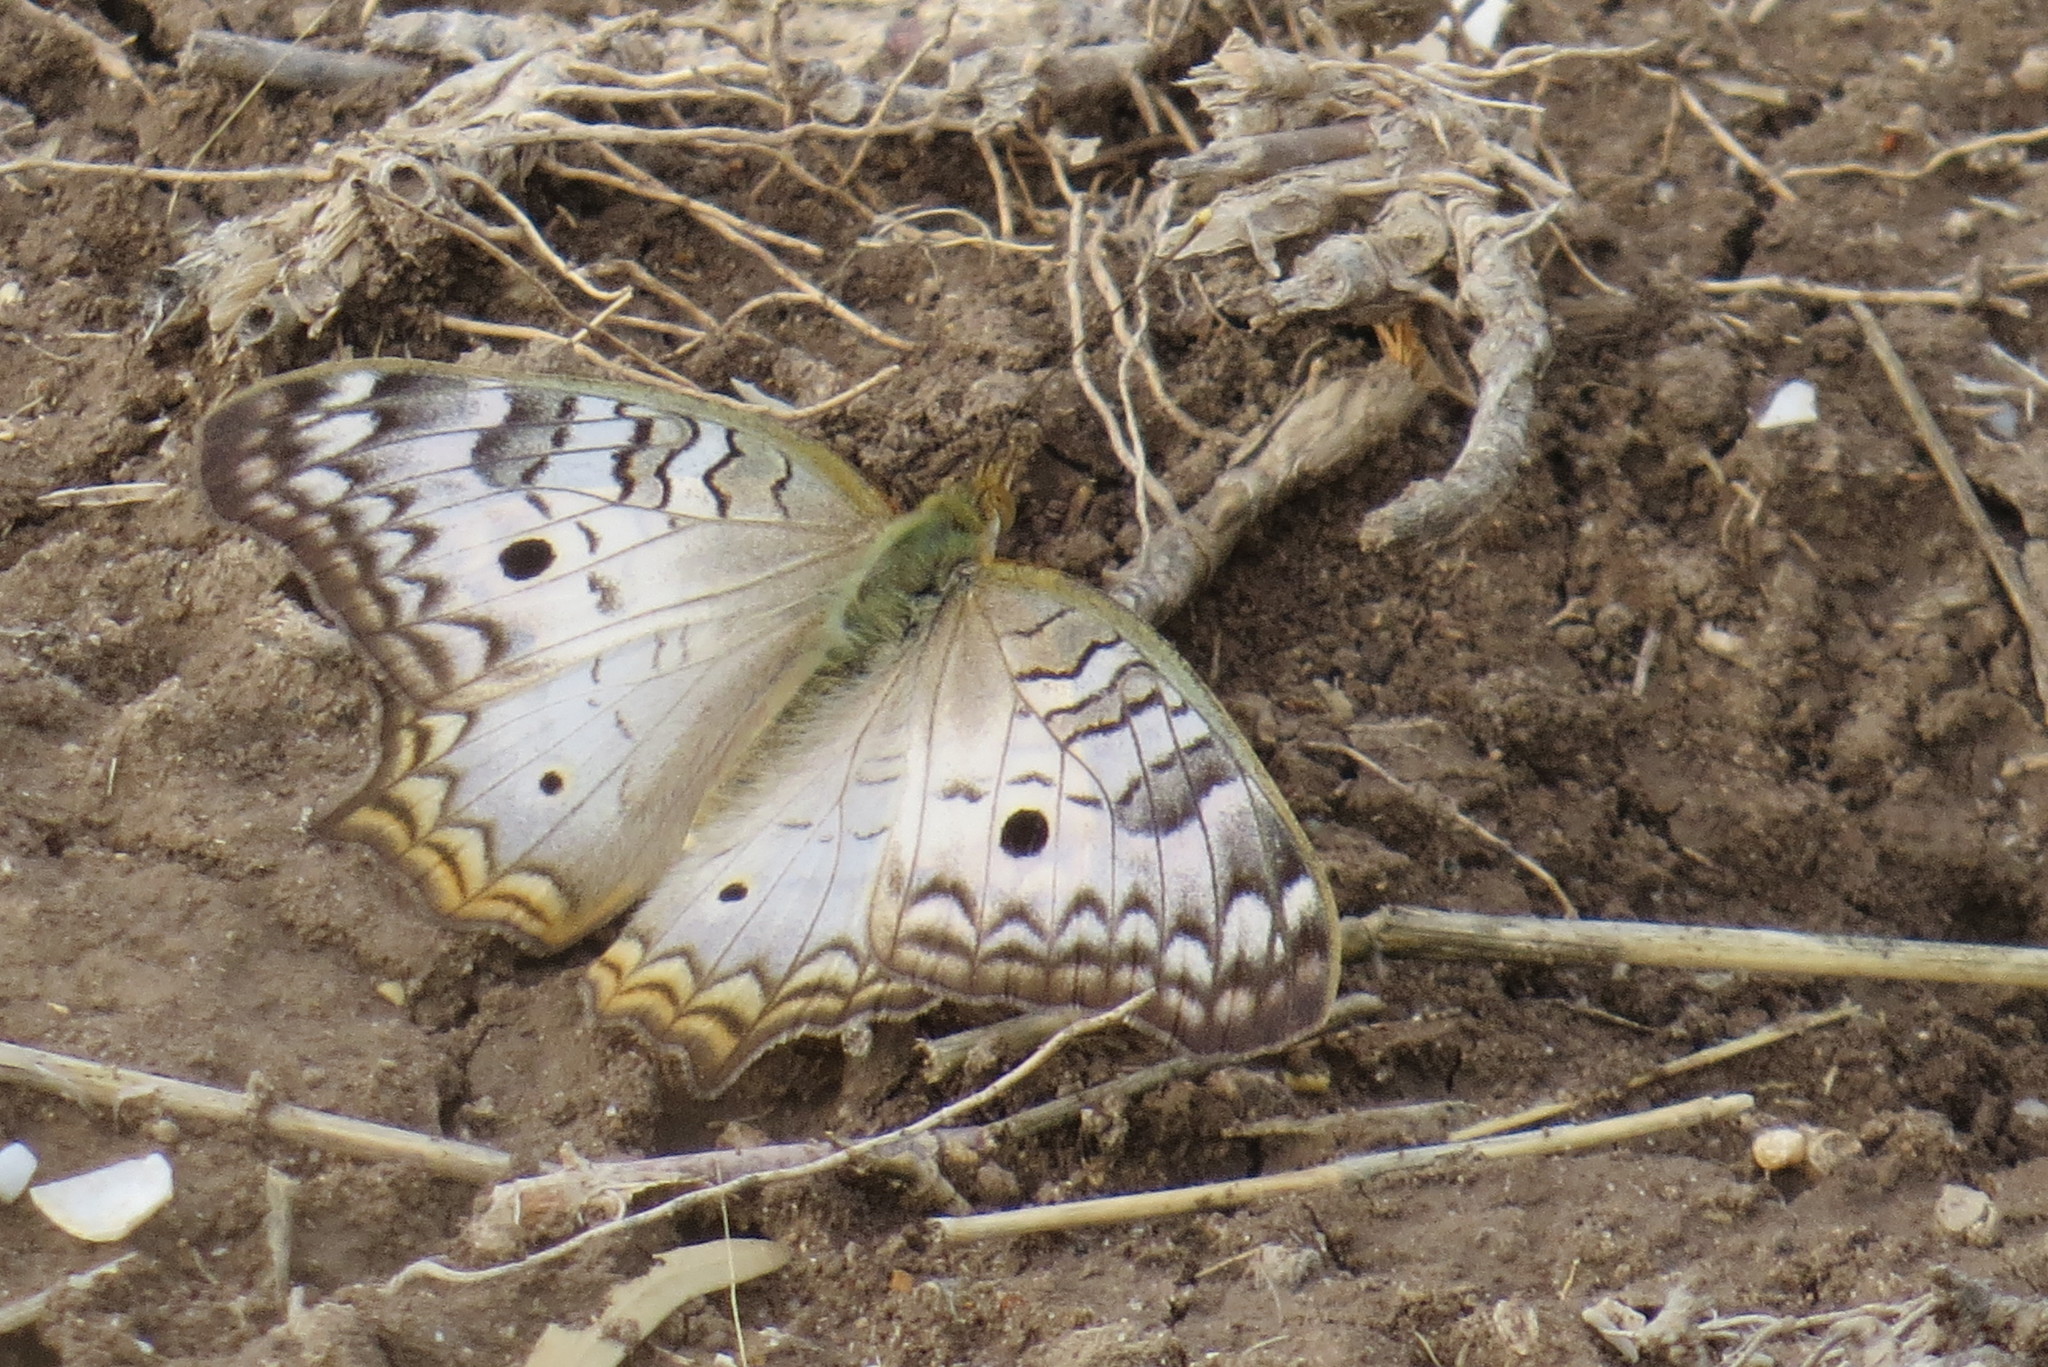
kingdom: Animalia
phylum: Arthropoda
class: Insecta
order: Lepidoptera
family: Nymphalidae
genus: Anartia
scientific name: Anartia jatrophae
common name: White peacock
